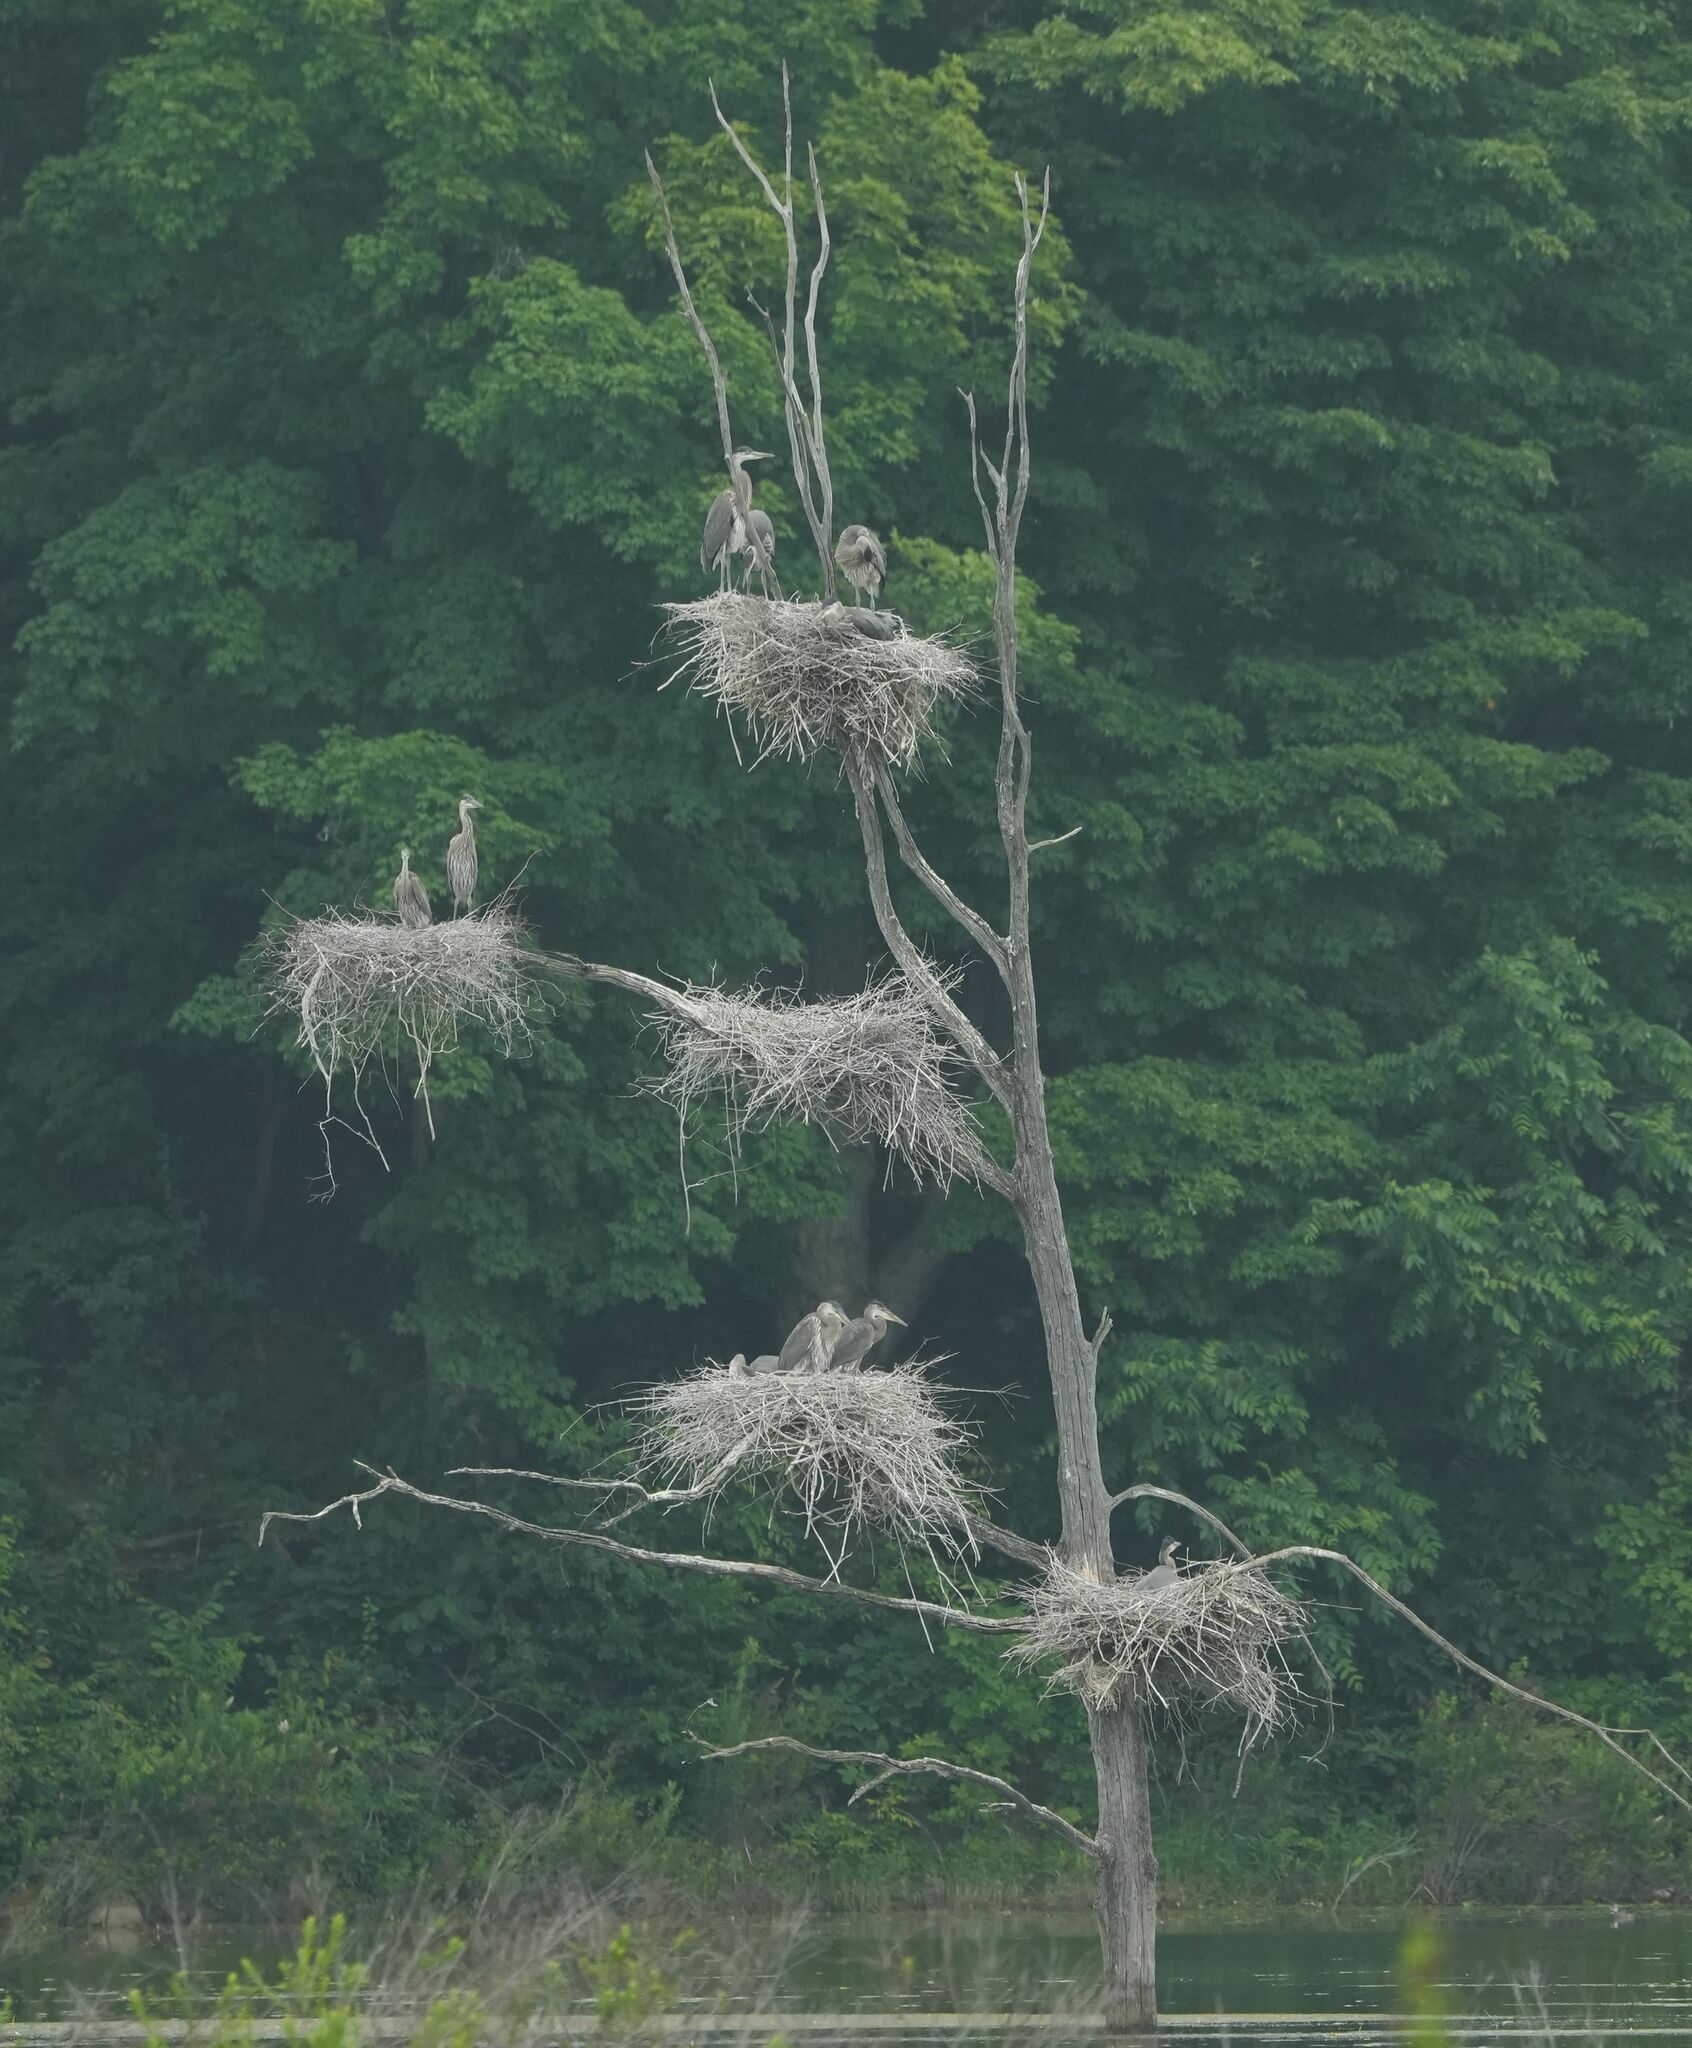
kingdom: Animalia
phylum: Chordata
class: Aves
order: Pelecaniformes
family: Ardeidae
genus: Ardea
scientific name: Ardea herodias
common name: Great blue heron
